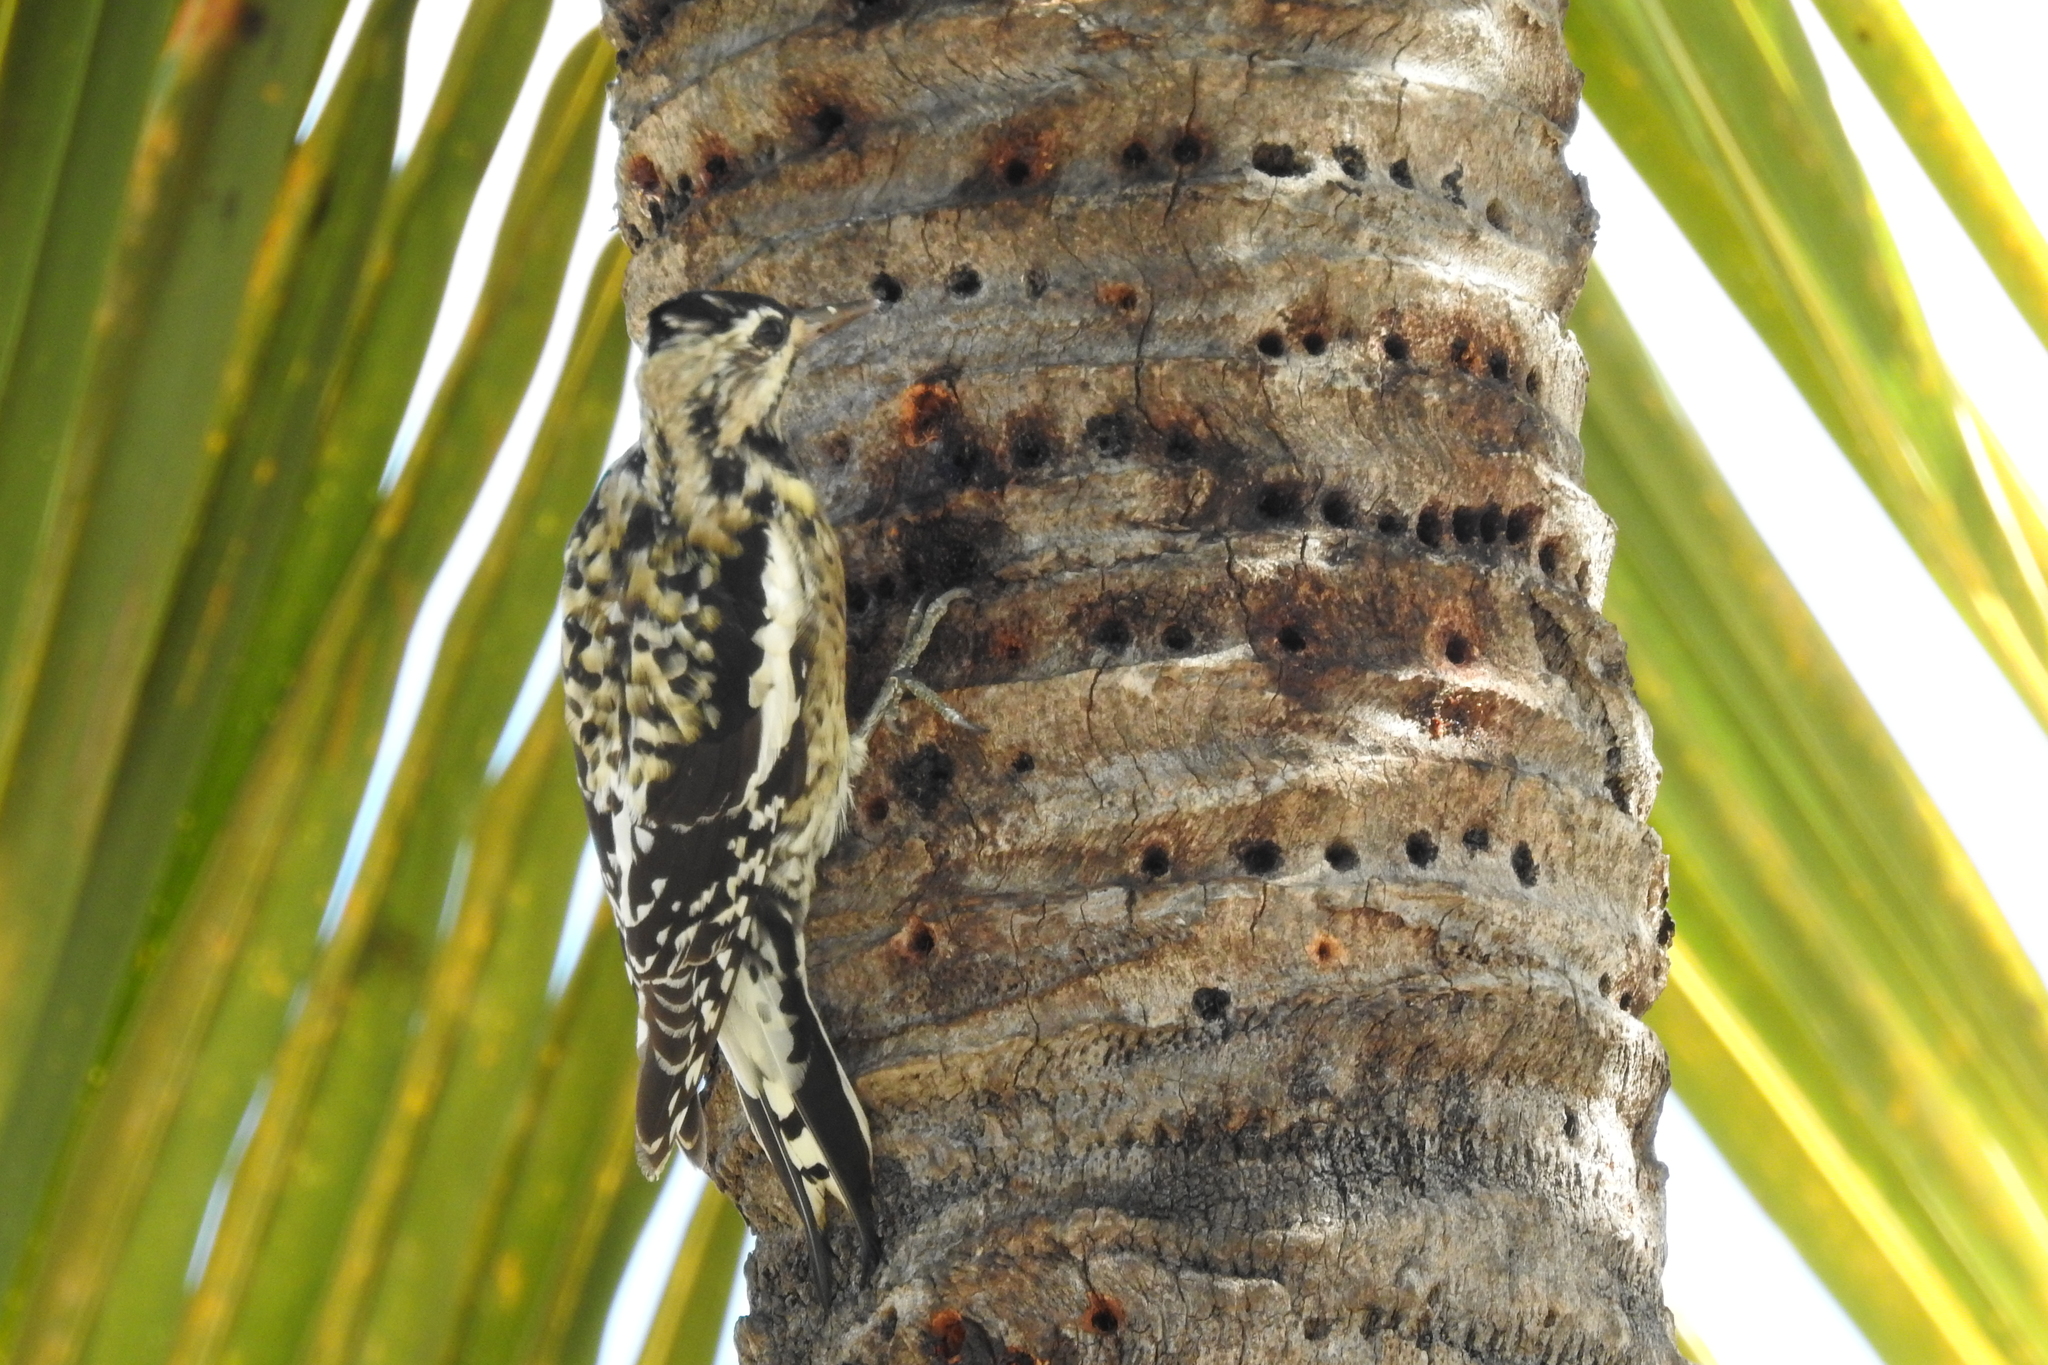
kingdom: Animalia
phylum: Chordata
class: Aves
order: Piciformes
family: Picidae
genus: Sphyrapicus
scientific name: Sphyrapicus varius
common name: Yellow-bellied sapsucker
